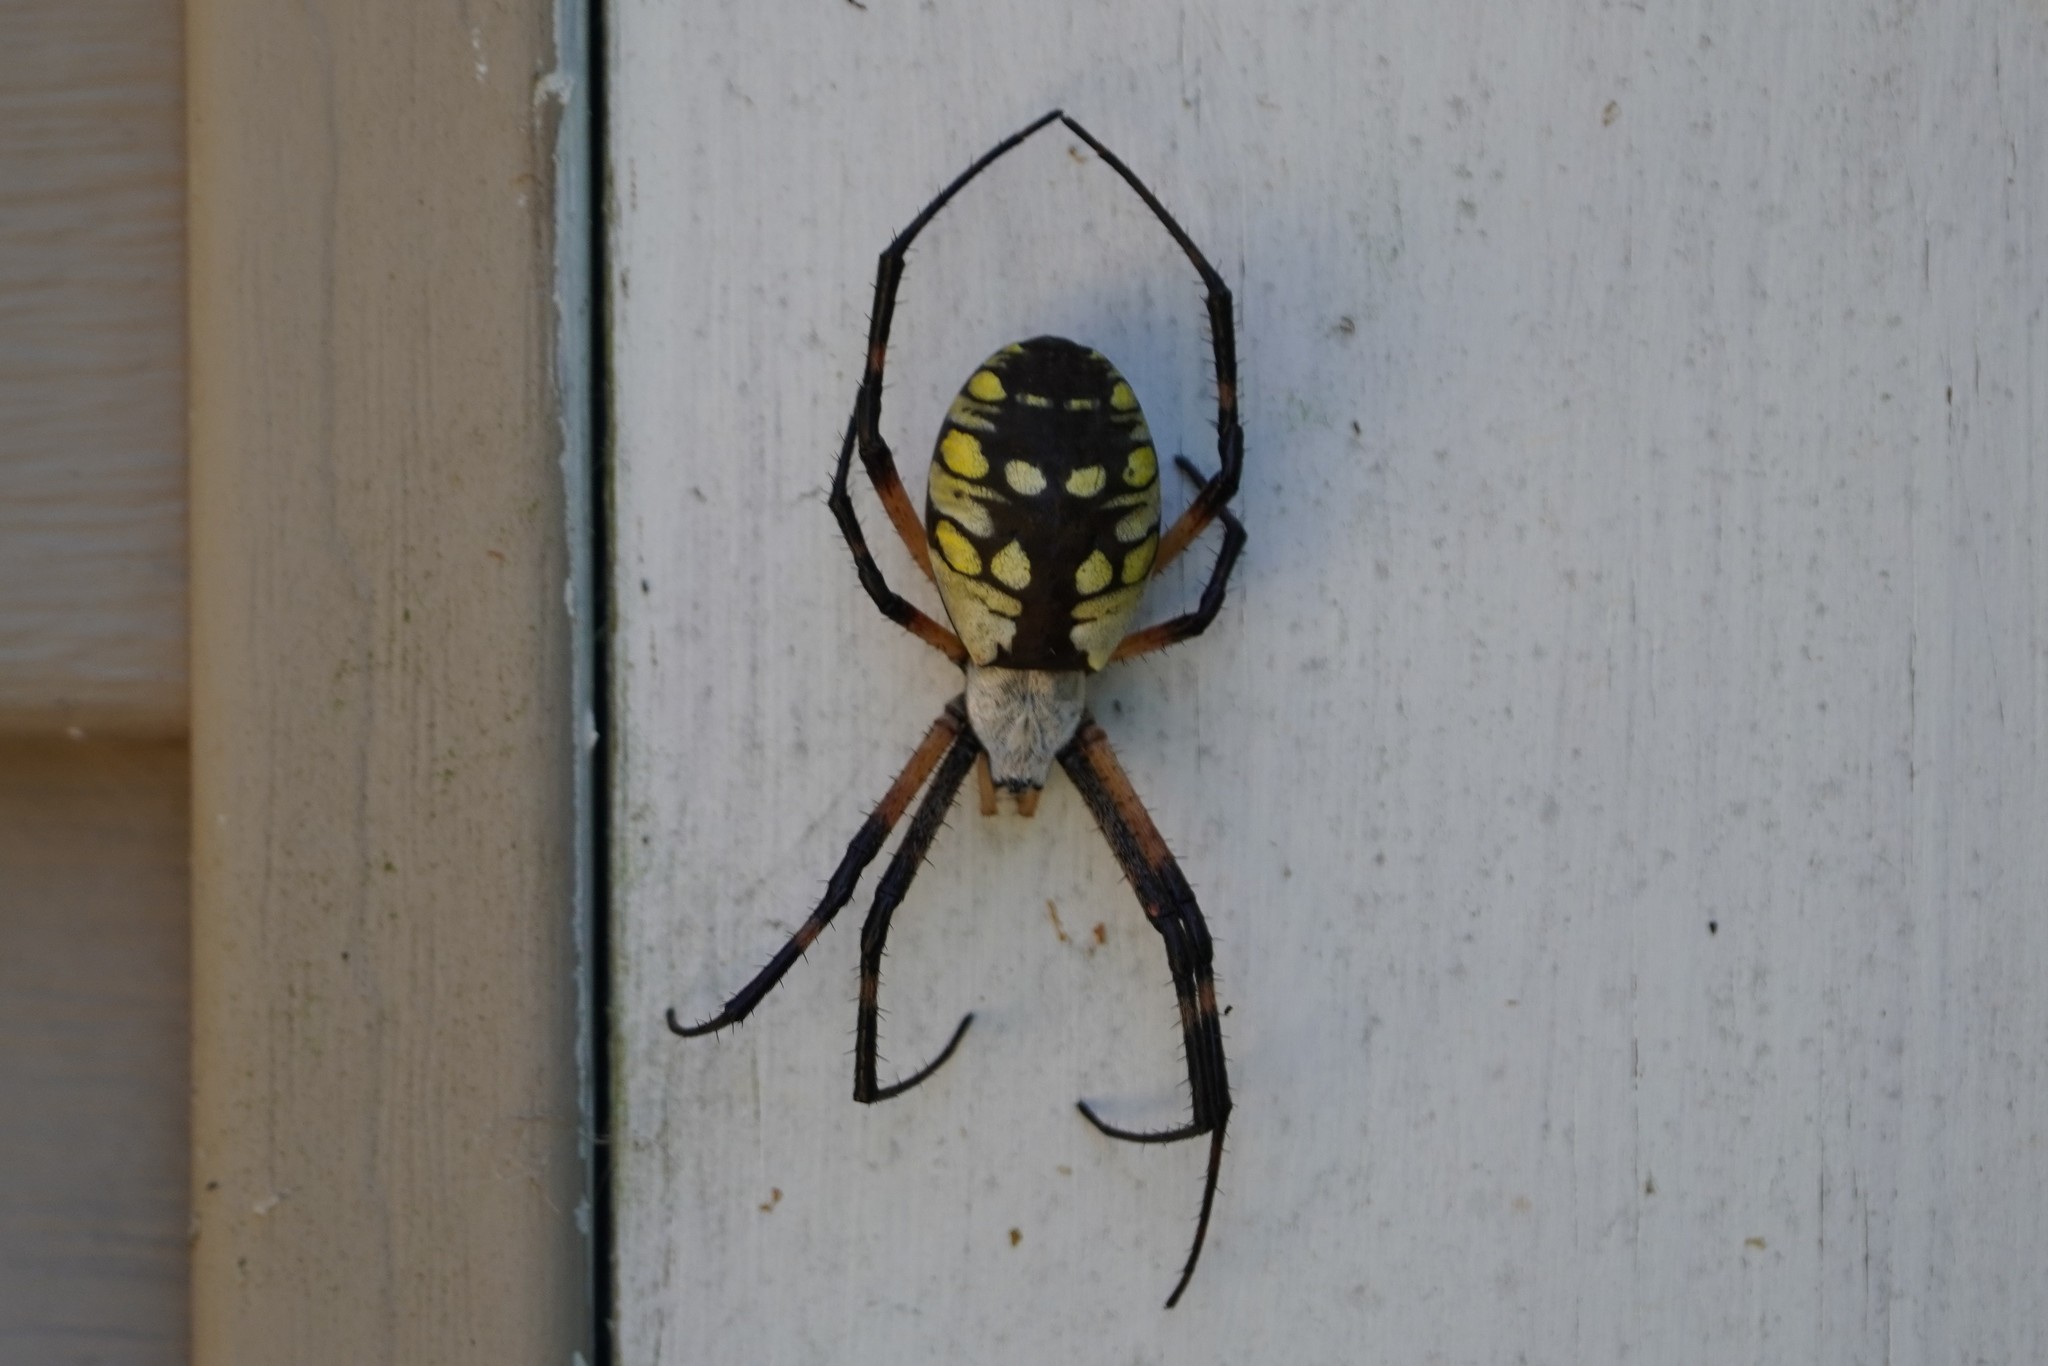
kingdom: Animalia
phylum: Arthropoda
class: Arachnida
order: Araneae
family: Araneidae
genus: Argiope
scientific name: Argiope aurantia
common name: Orb weavers
